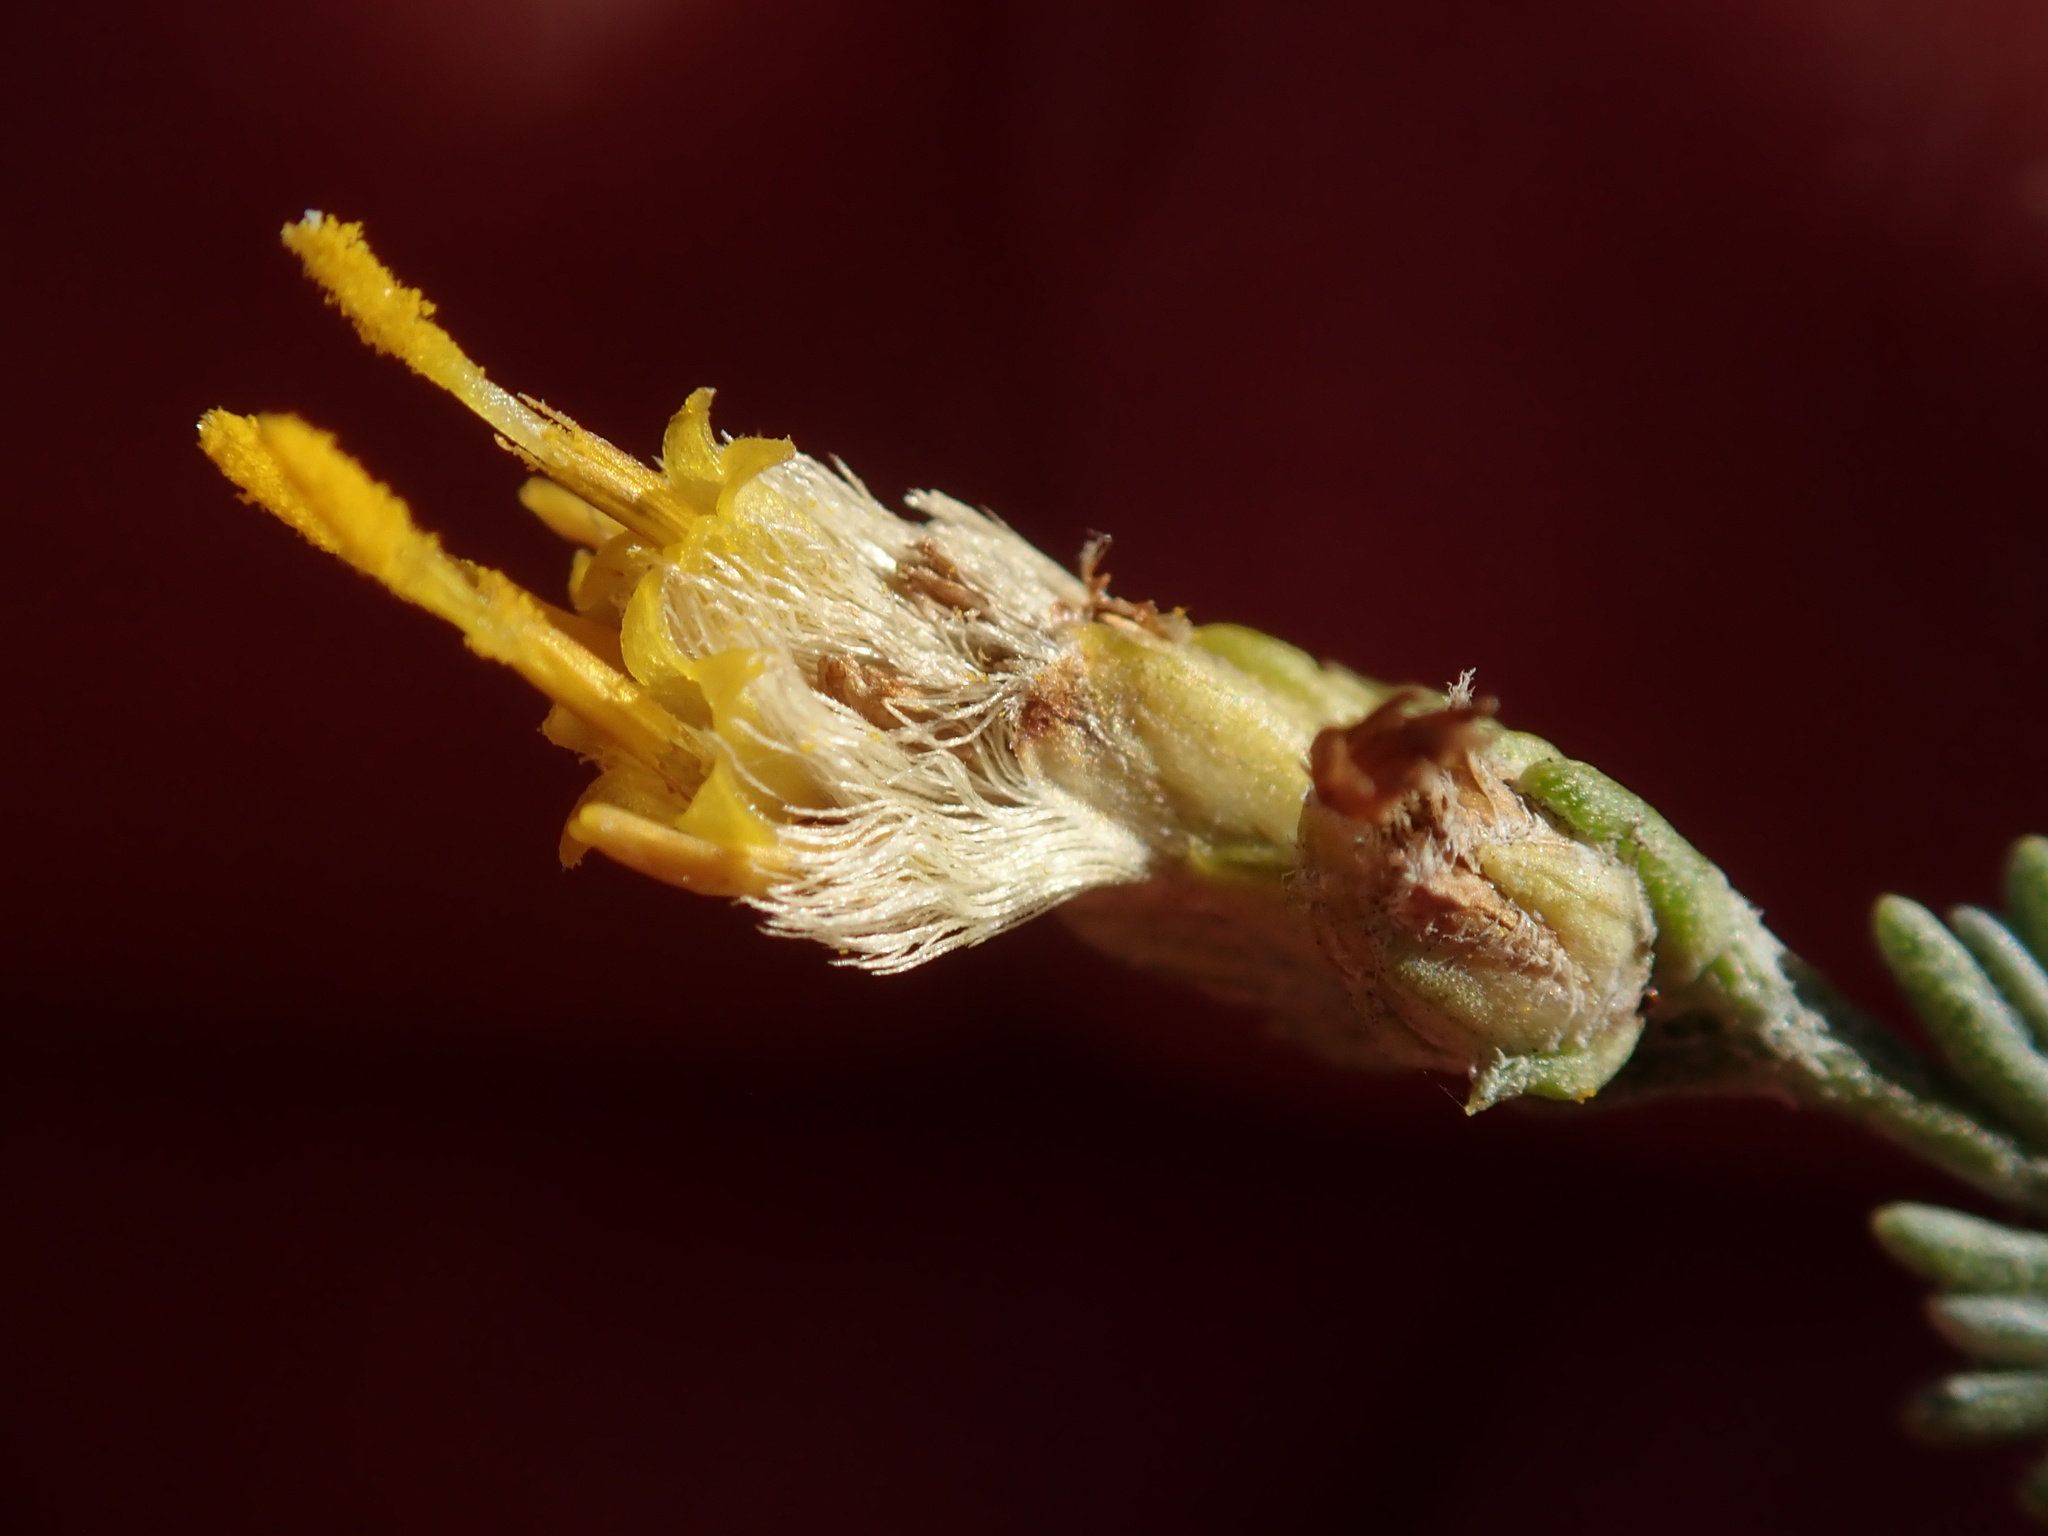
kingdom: Plantae
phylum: Tracheophyta
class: Magnoliopsida
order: Asterales
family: Asteraceae
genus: Ericameria
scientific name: Ericameria ericoides
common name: California goldenbush
